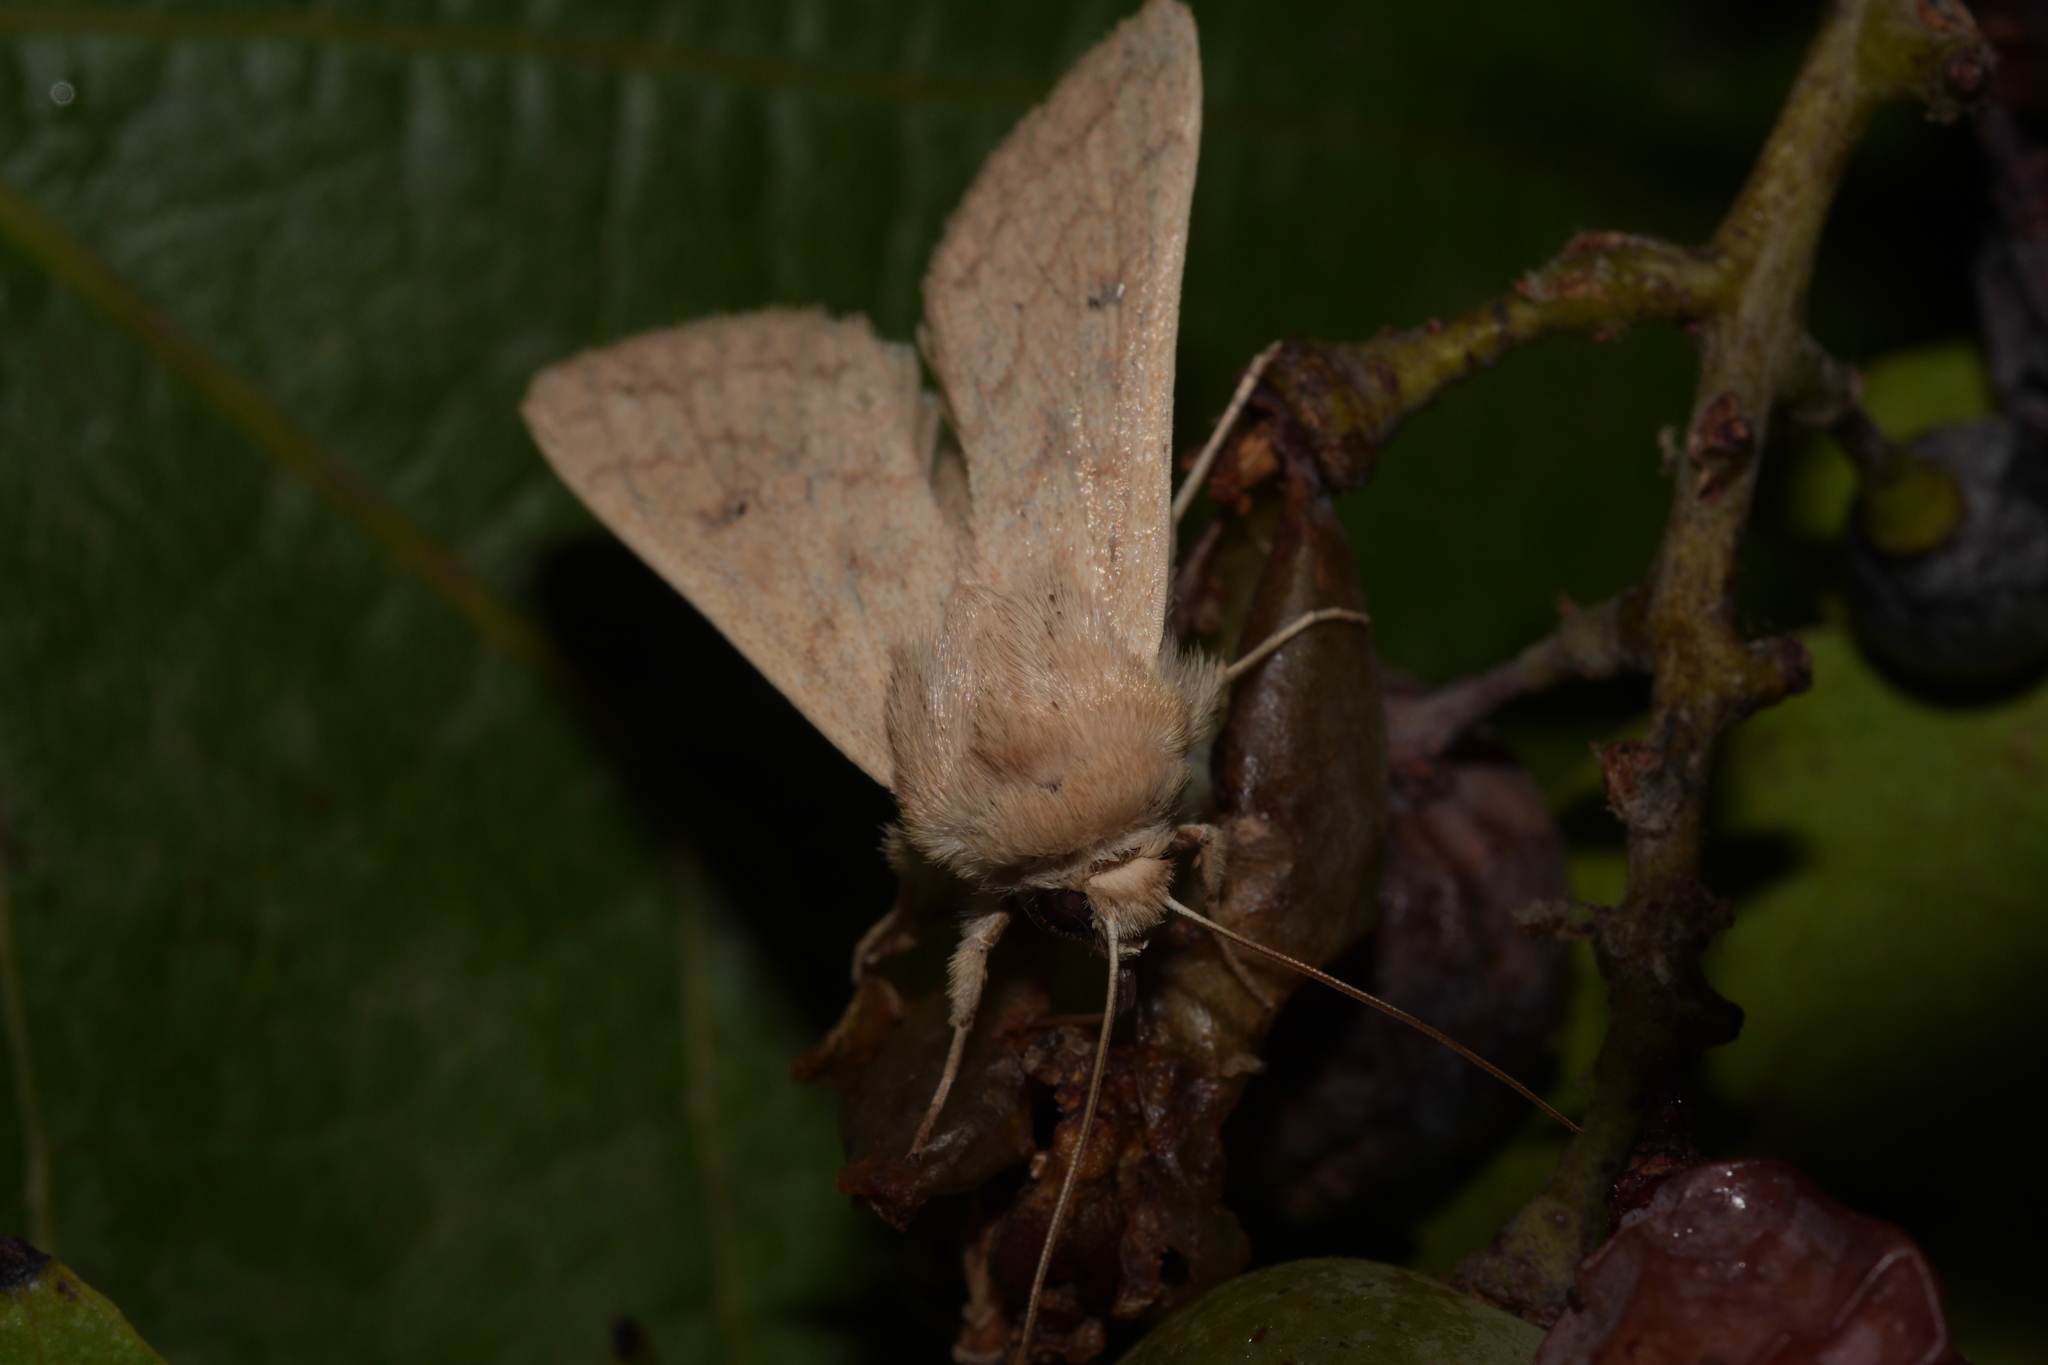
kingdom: Animalia
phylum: Arthropoda
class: Insecta
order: Lepidoptera
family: Noctuidae
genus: Mythimna
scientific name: Mythimna vitellina
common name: Delicate
